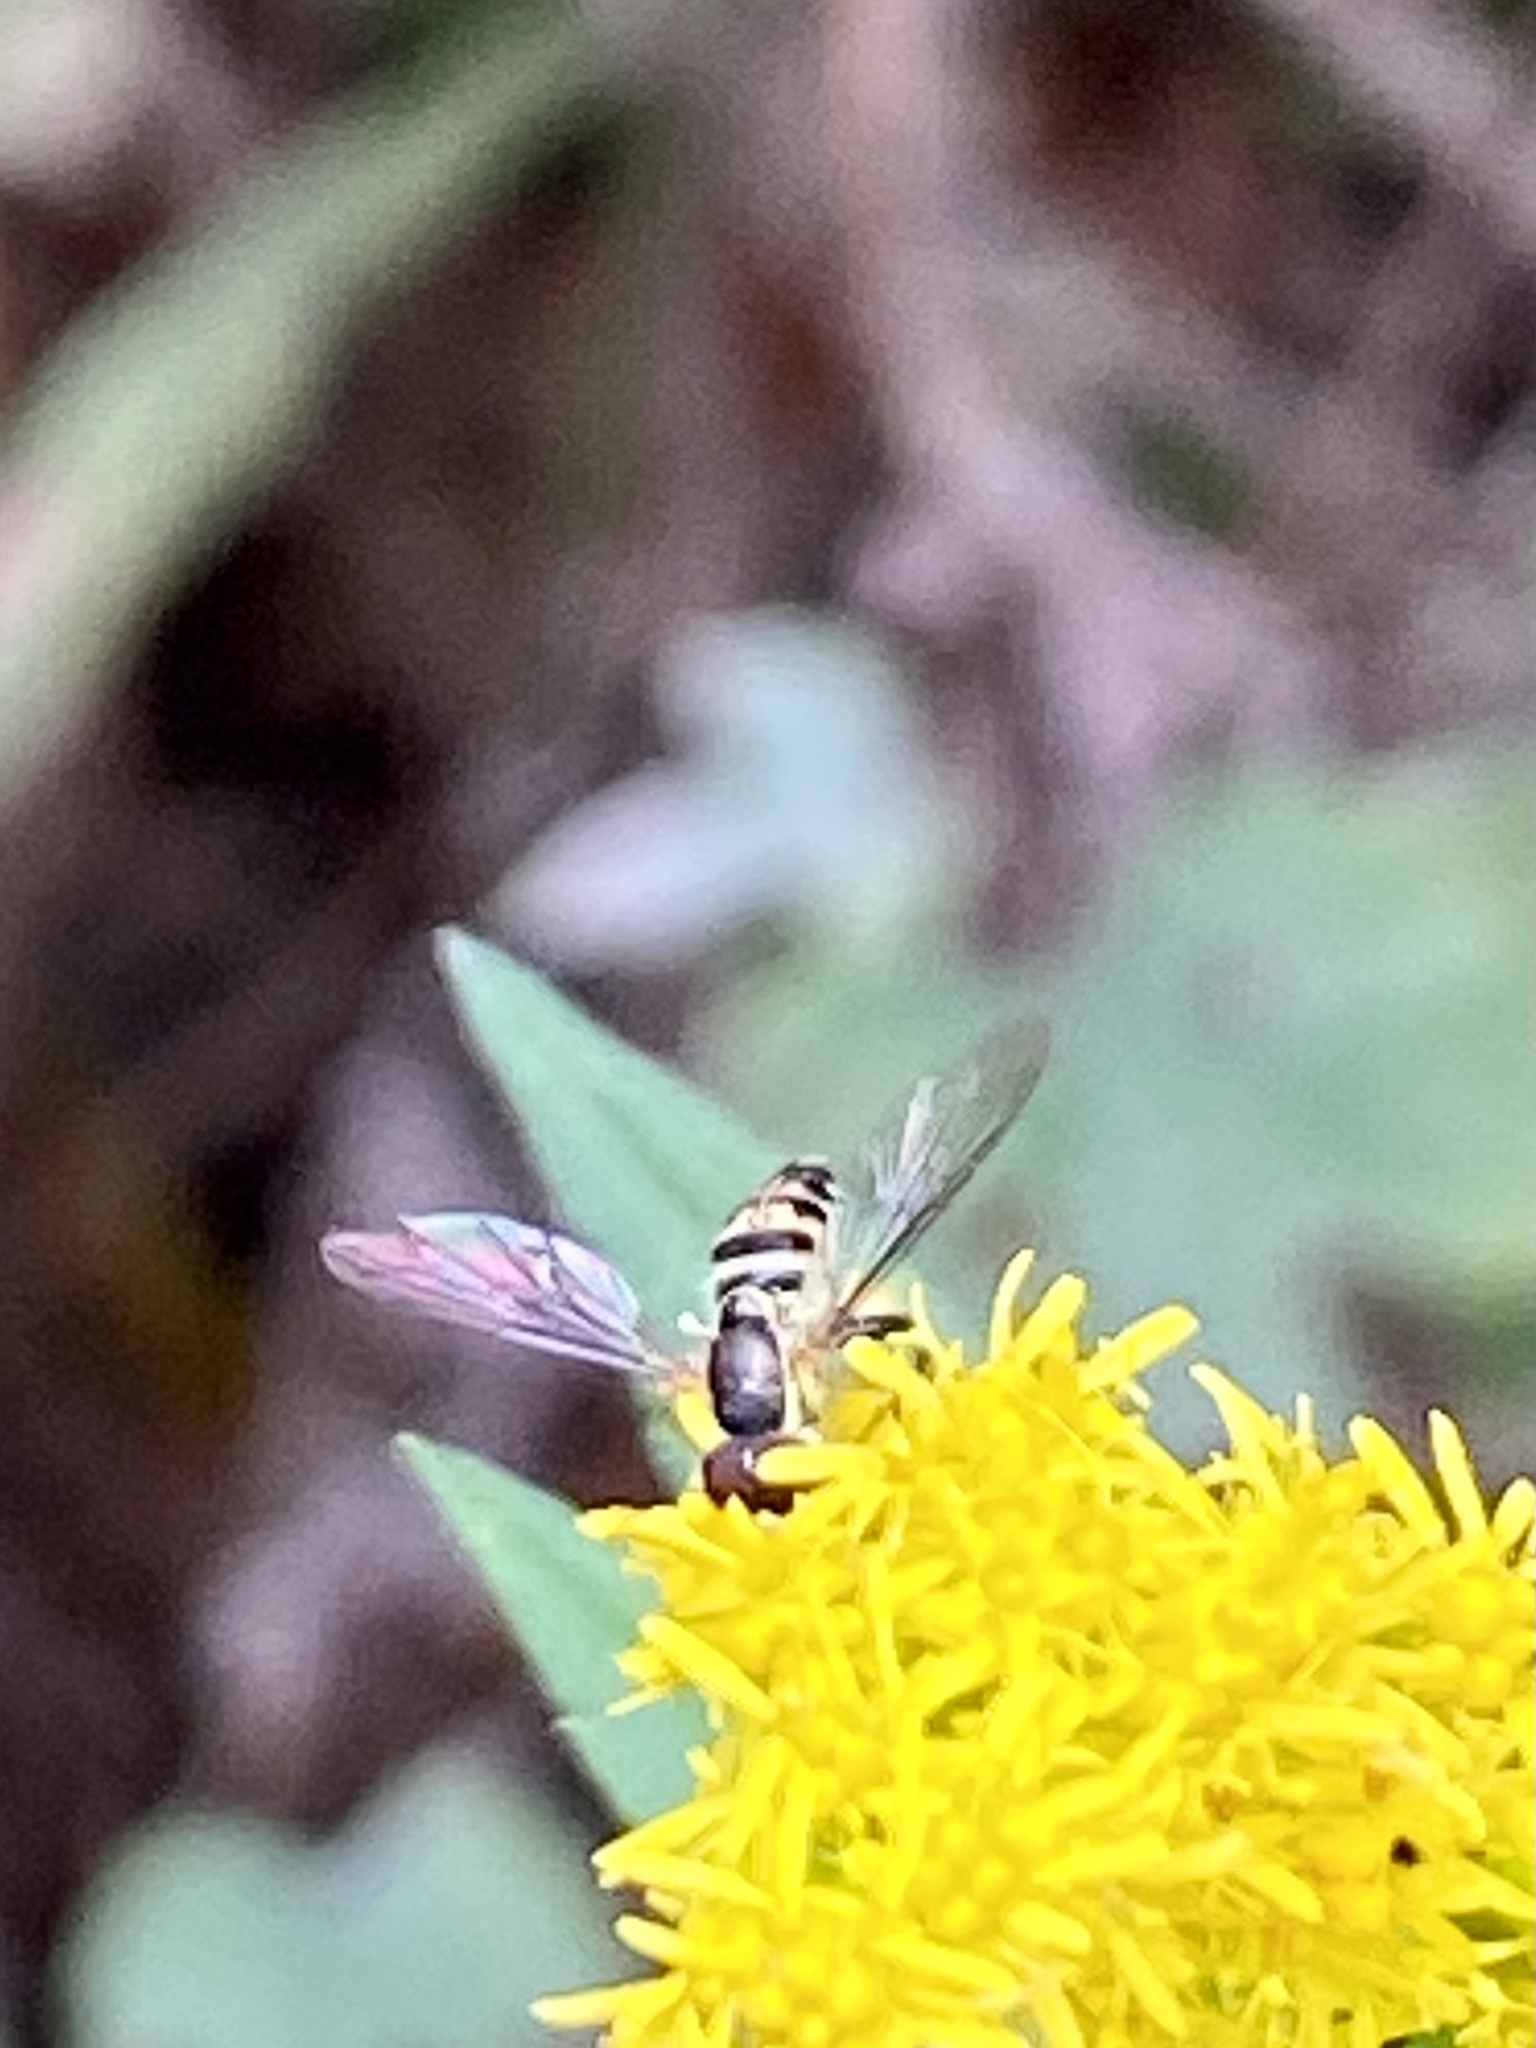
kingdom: Animalia
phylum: Arthropoda
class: Insecta
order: Diptera
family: Syrphidae
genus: Toxomerus
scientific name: Toxomerus geminatus
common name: Eastern calligrapher
